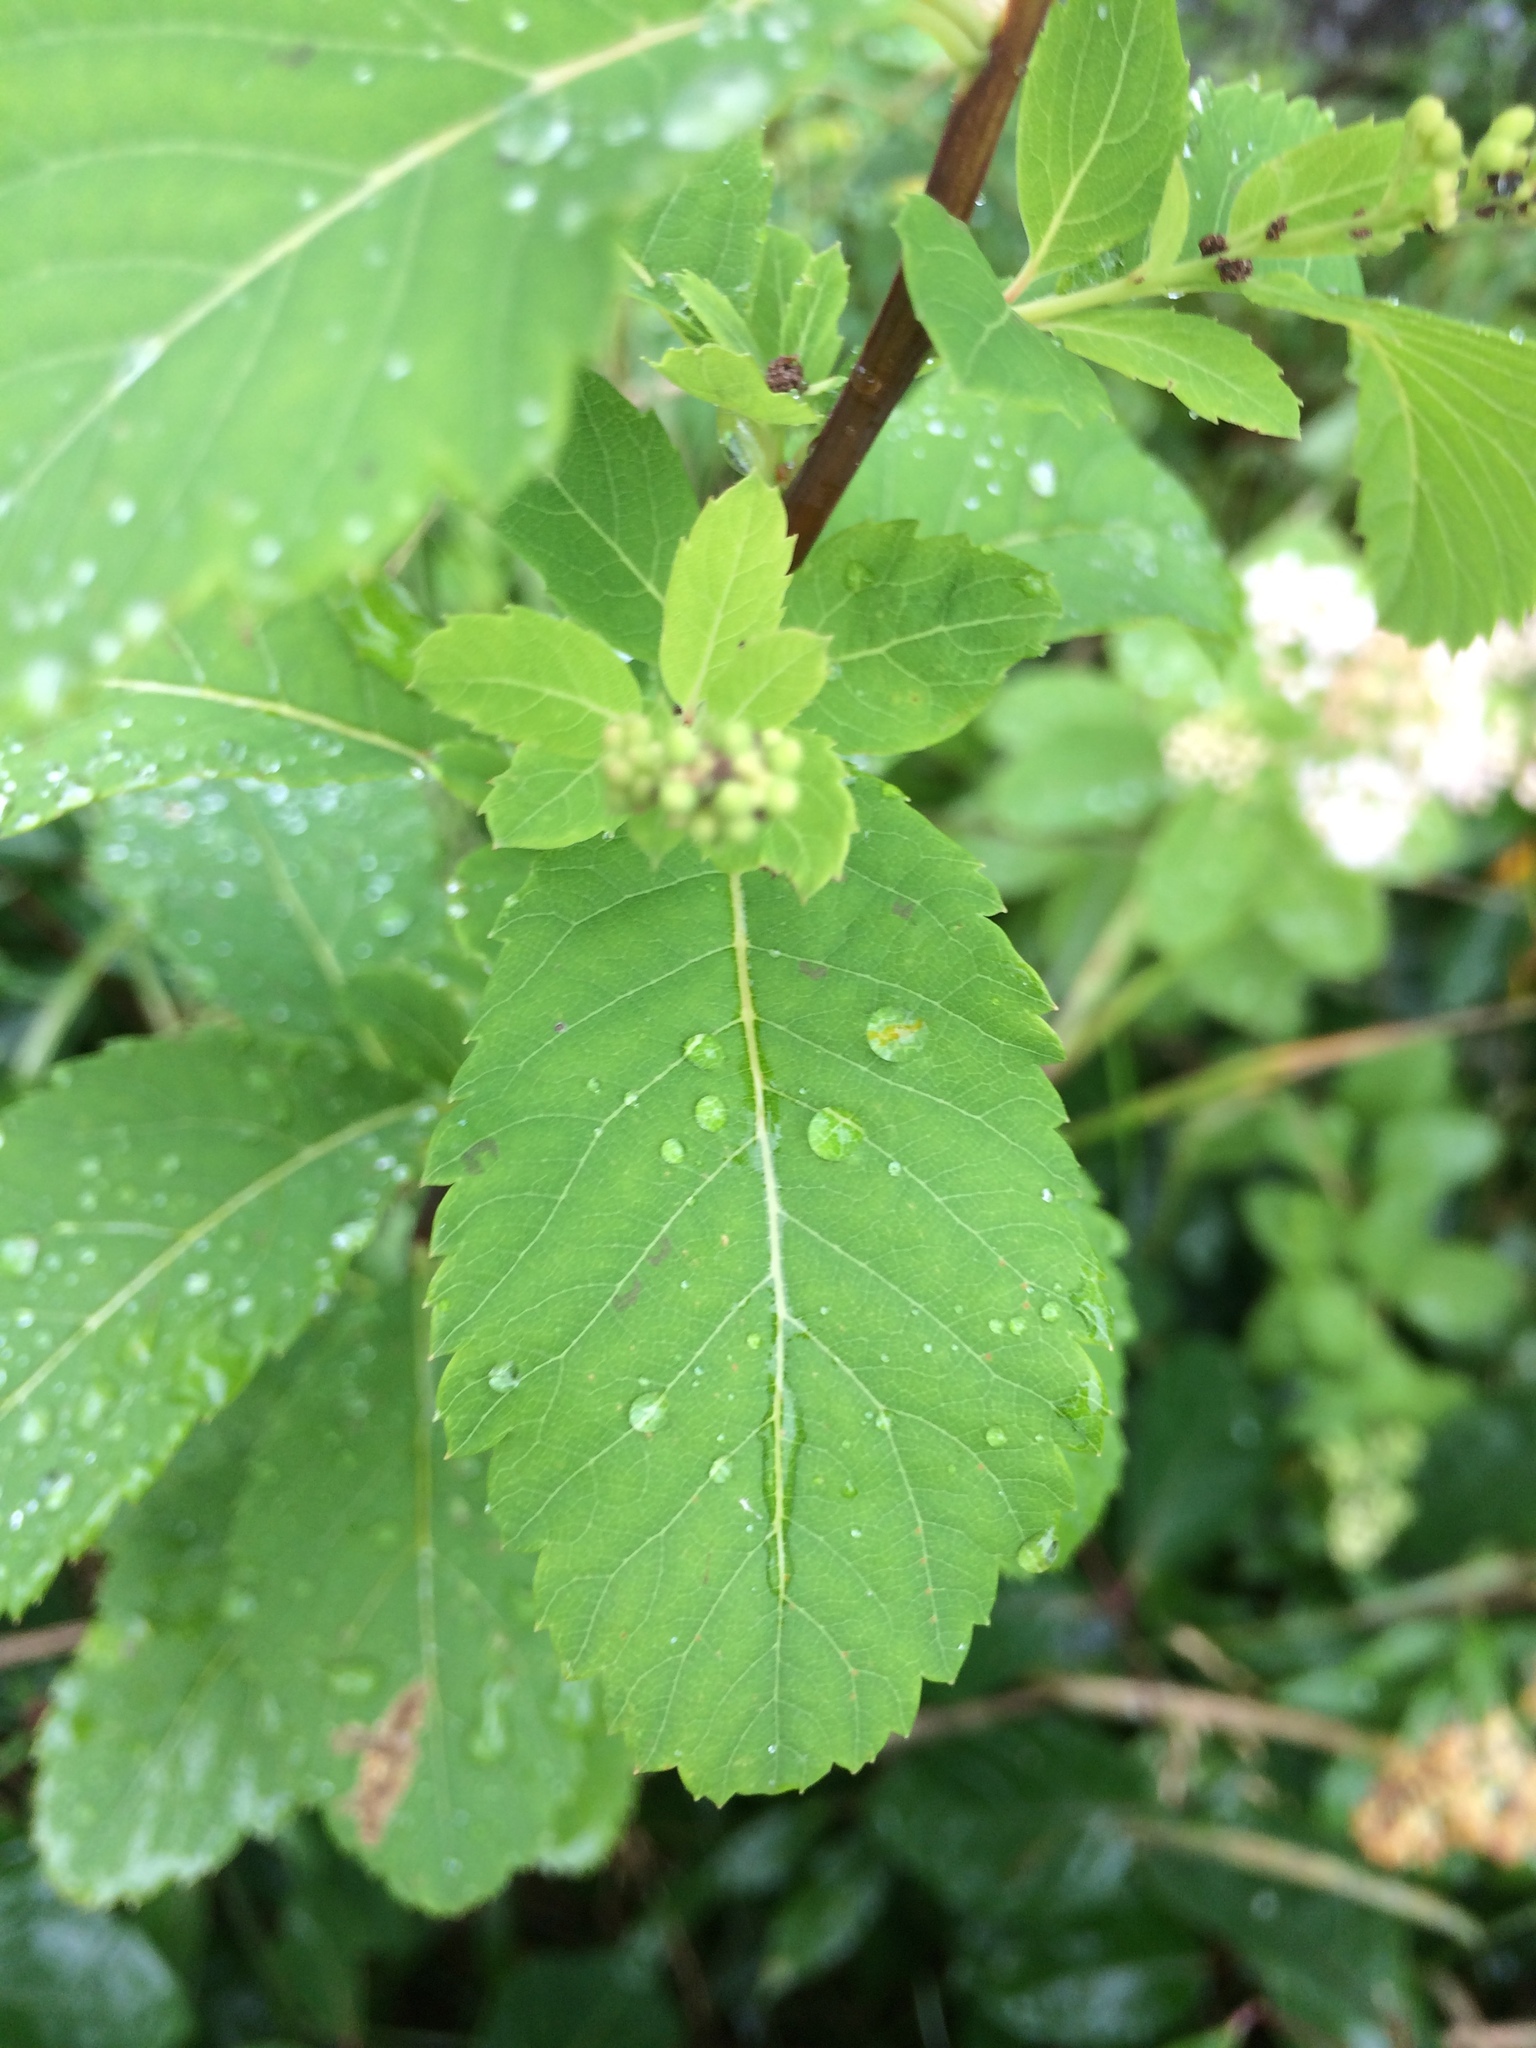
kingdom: Plantae
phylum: Tracheophyta
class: Magnoliopsida
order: Rosales
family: Rosaceae
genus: Spiraea
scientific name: Spiraea alba
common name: Pale bridewort
